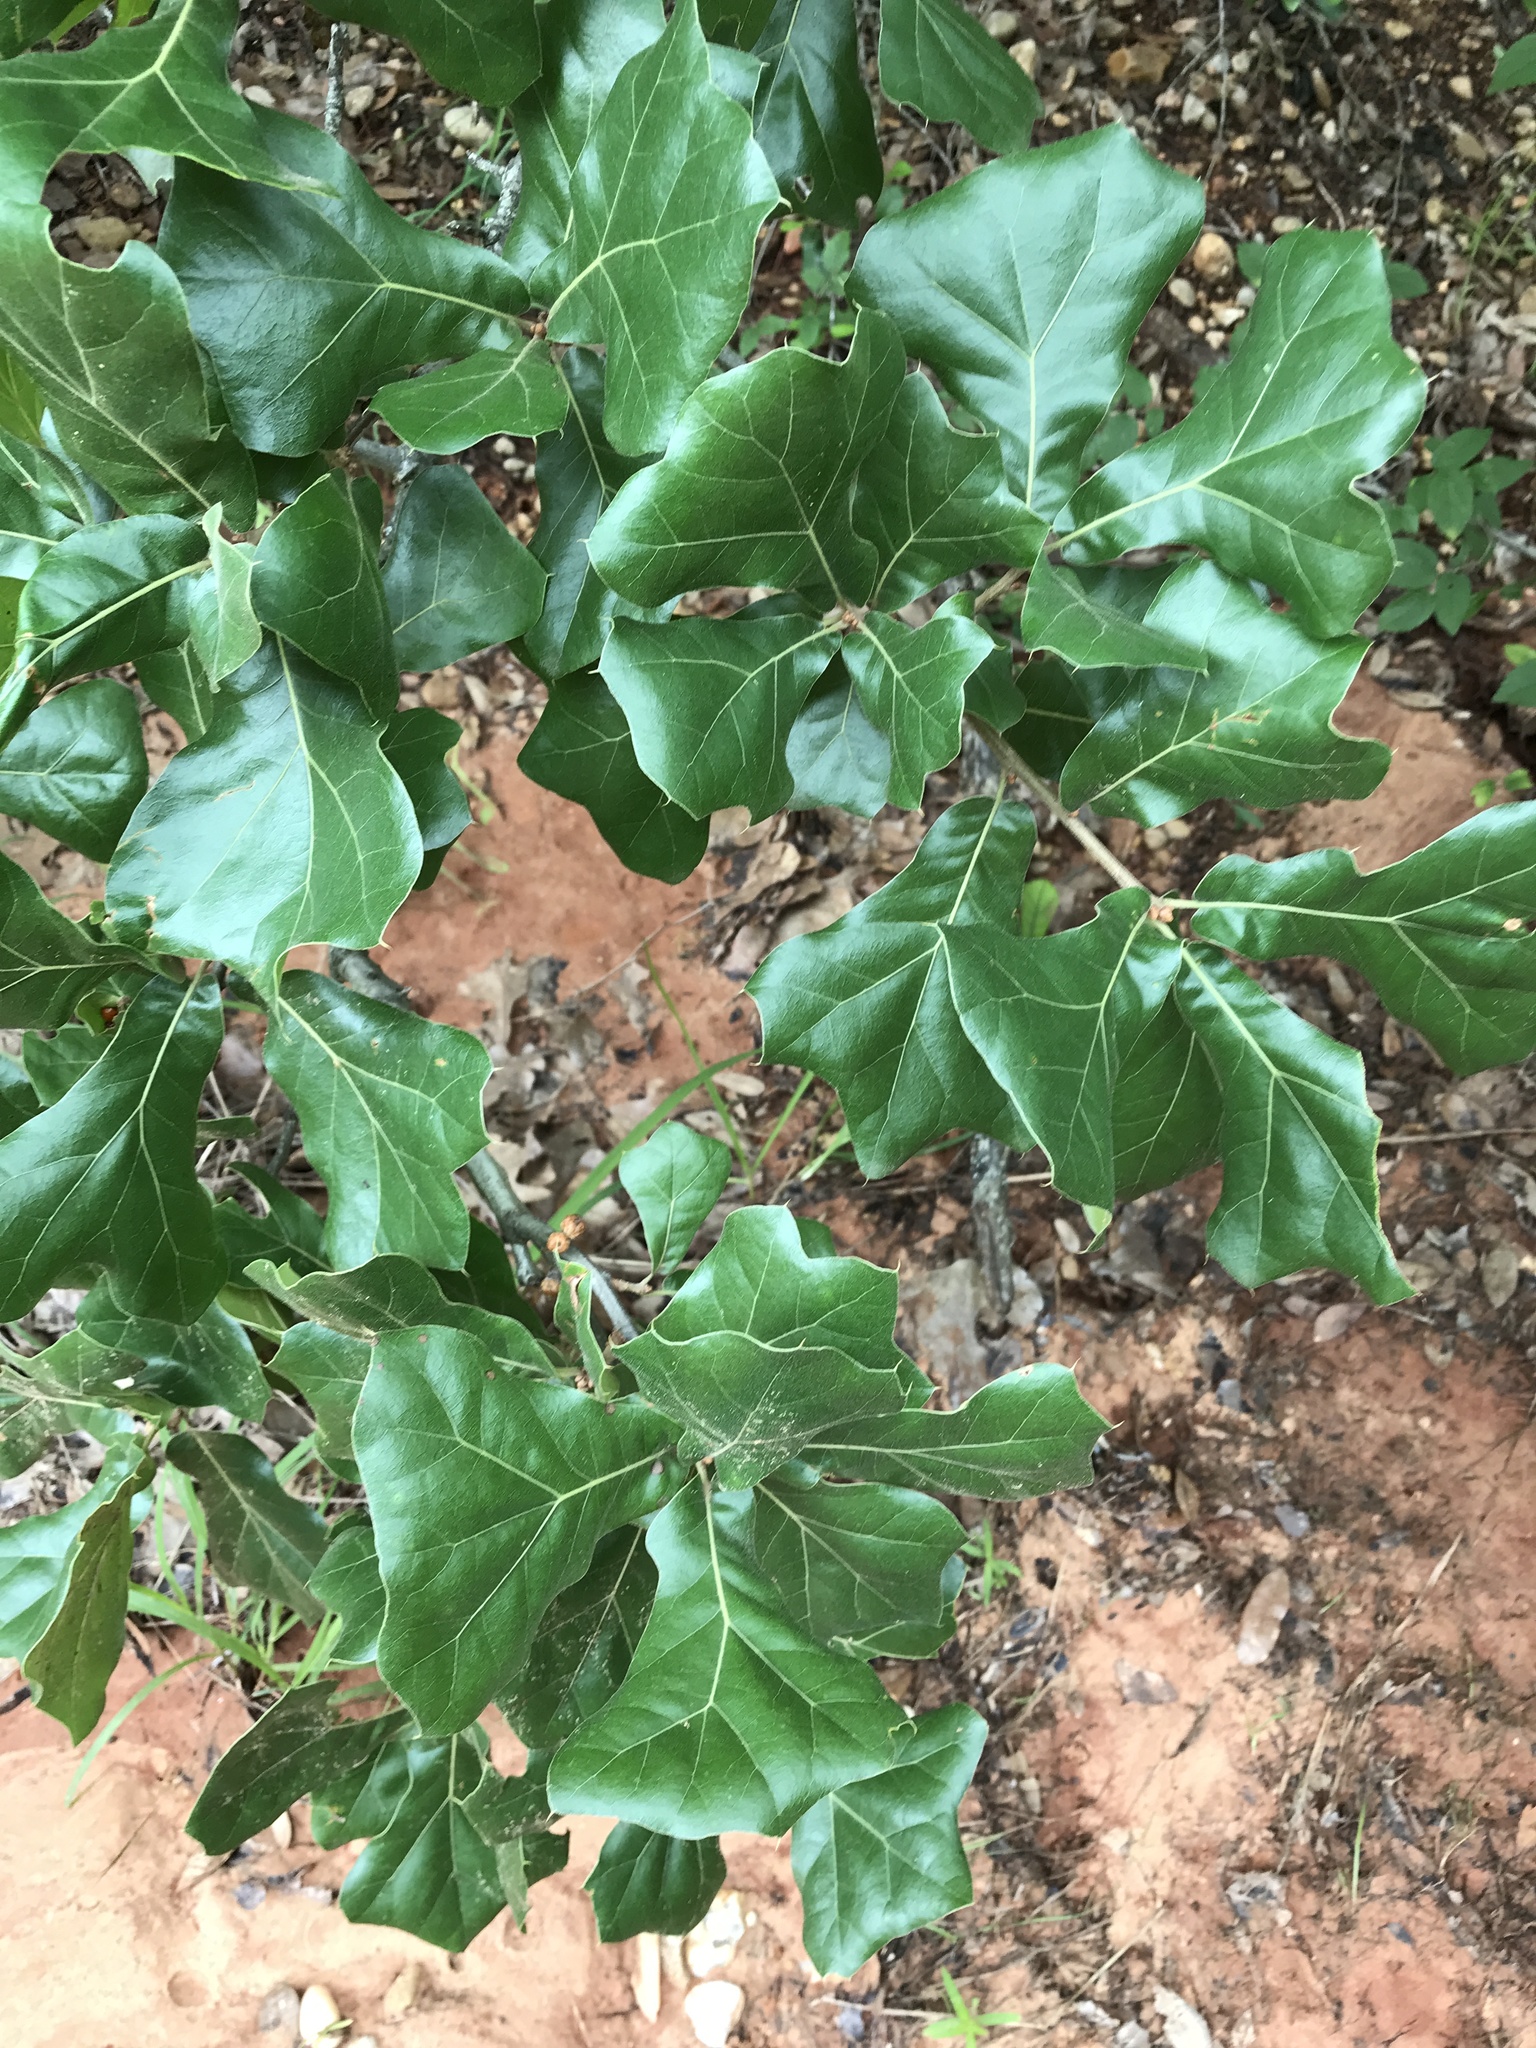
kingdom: Plantae
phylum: Tracheophyta
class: Magnoliopsida
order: Fagales
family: Fagaceae
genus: Quercus
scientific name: Quercus marilandica
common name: Blackjack oak
